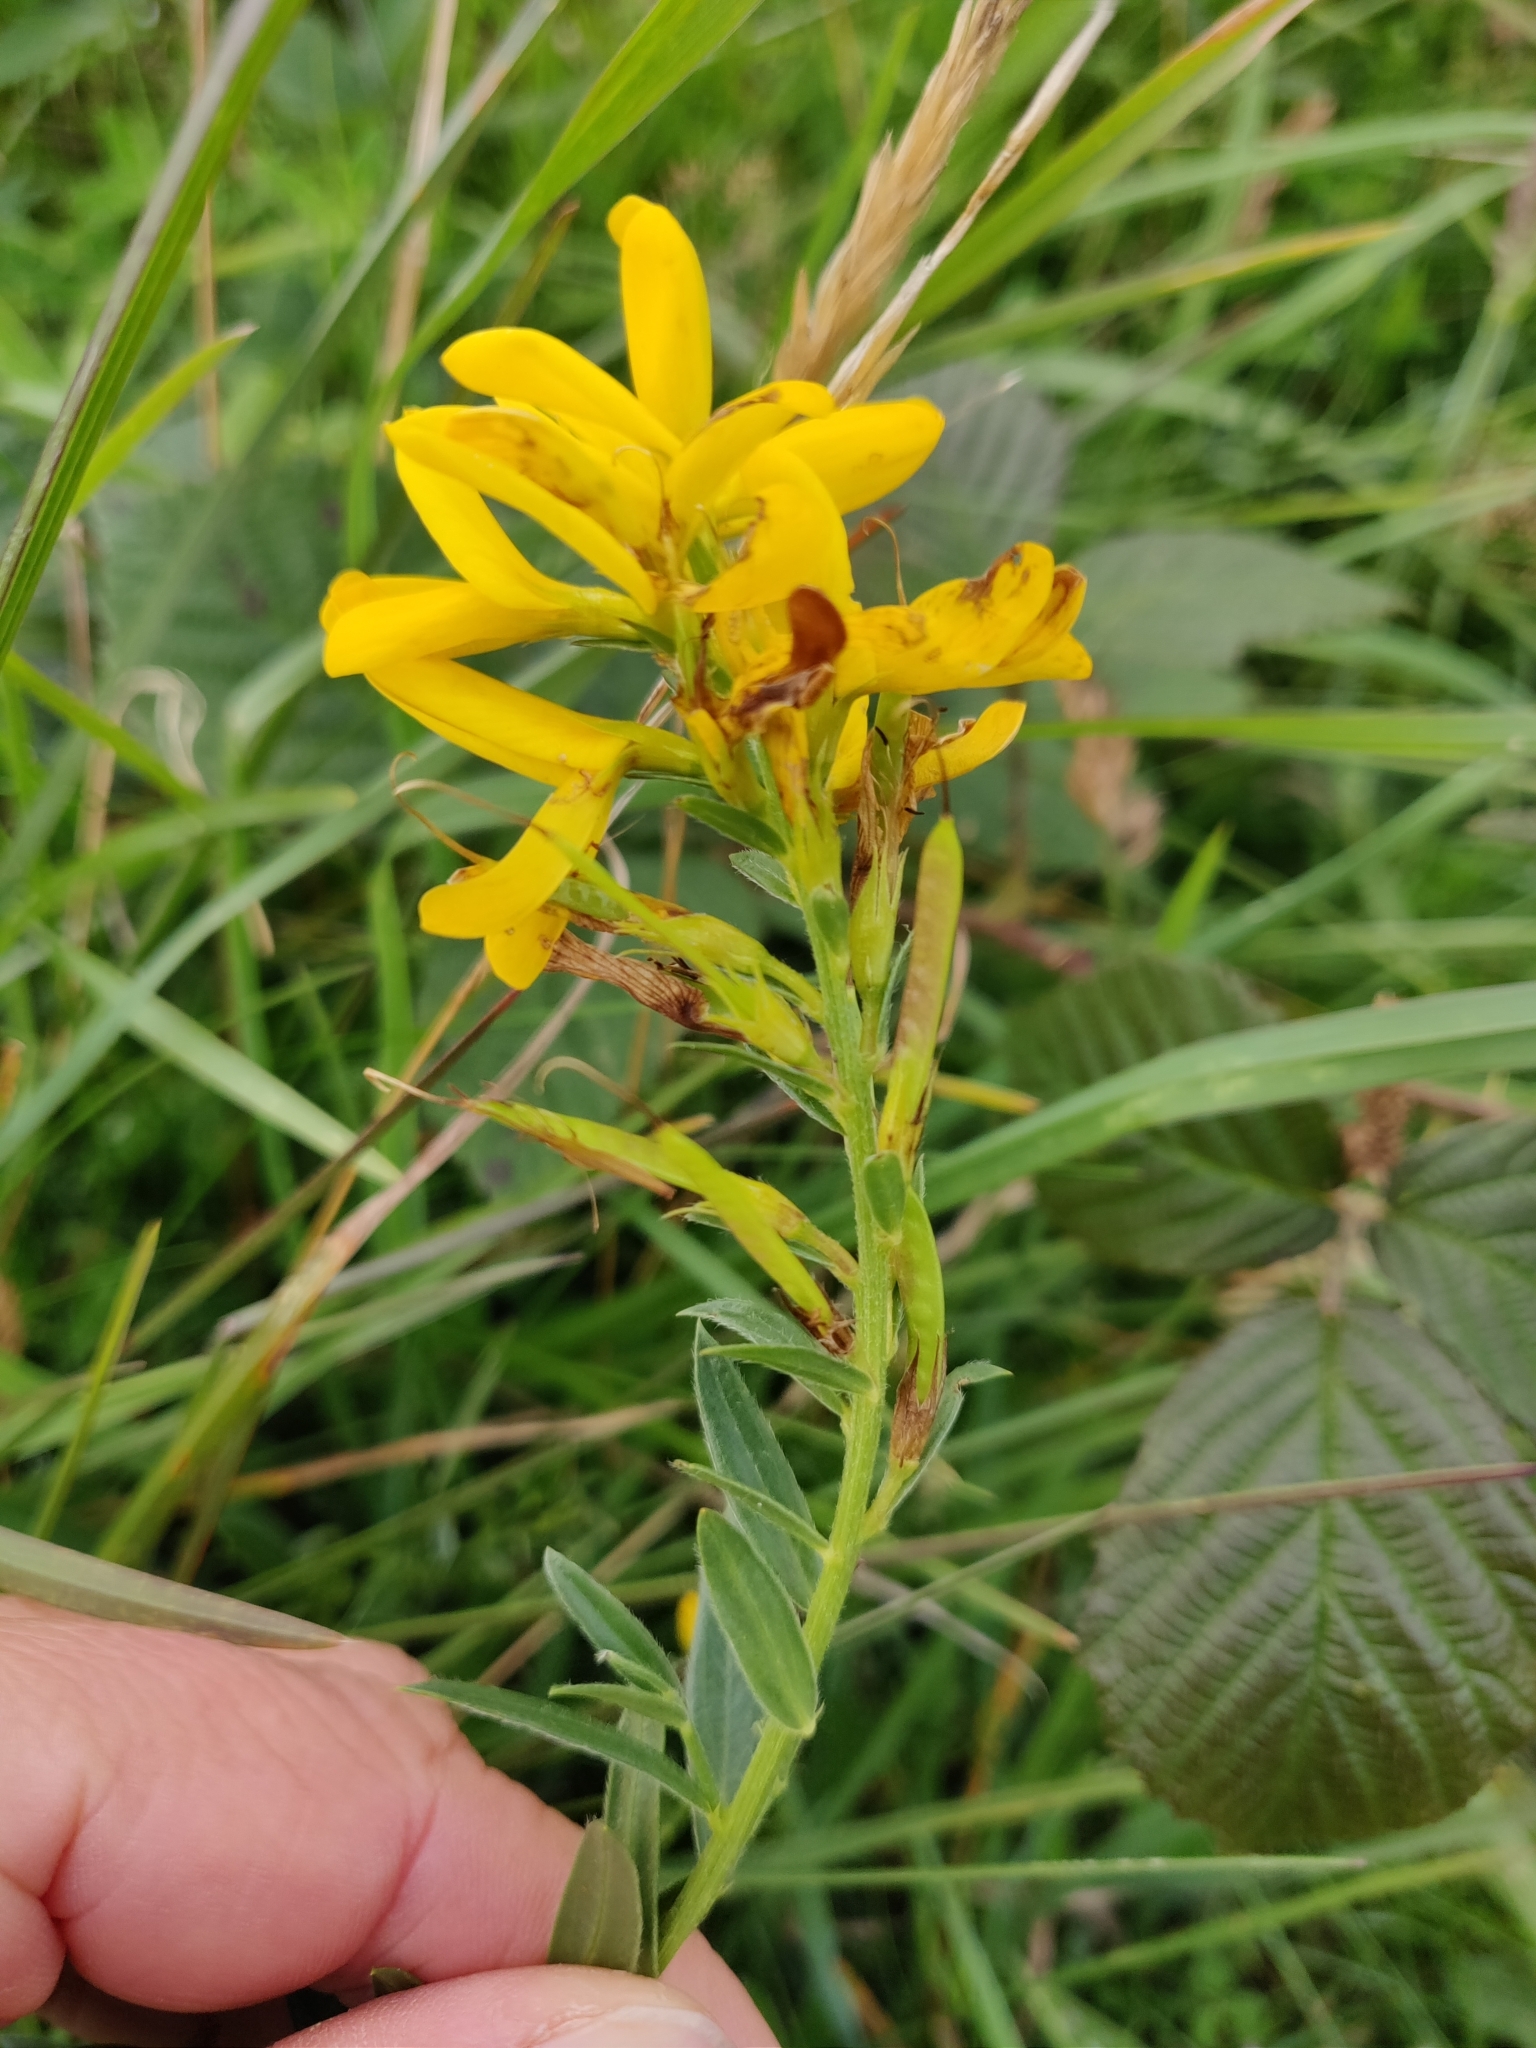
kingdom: Plantae
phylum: Tracheophyta
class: Magnoliopsida
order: Fabales
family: Fabaceae
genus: Genista
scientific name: Genista tinctoria
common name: Dyer's greenweed
